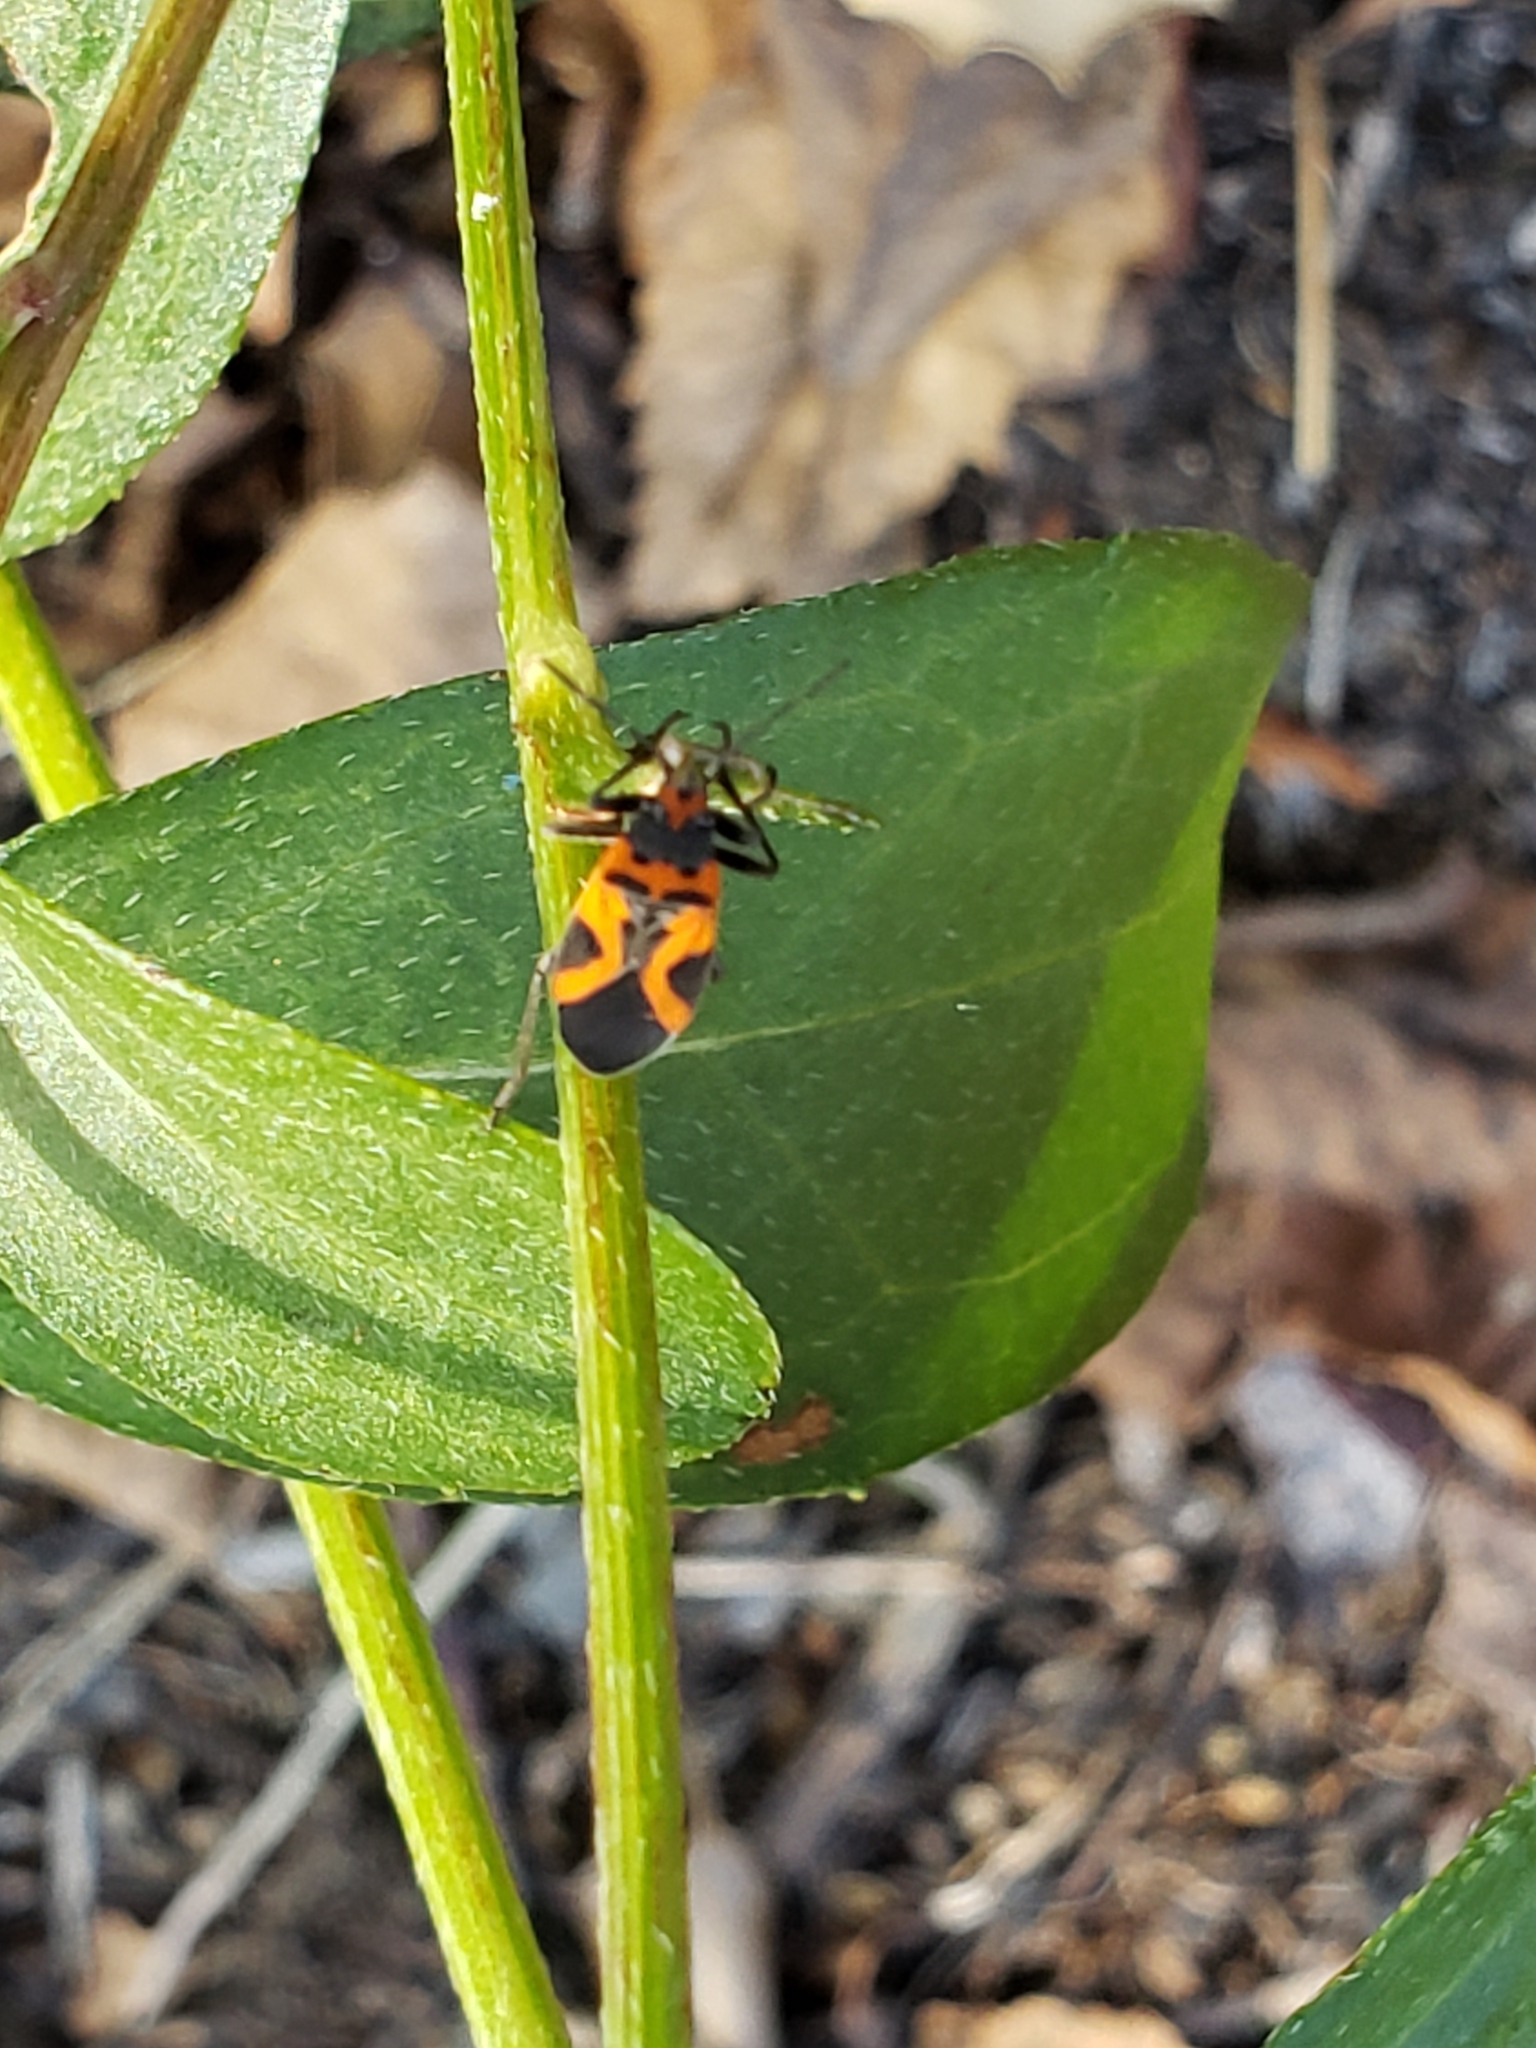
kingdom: Animalia
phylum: Arthropoda
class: Insecta
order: Hemiptera
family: Lygaeidae
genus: Lygaeus
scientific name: Lygaeus turcicus
